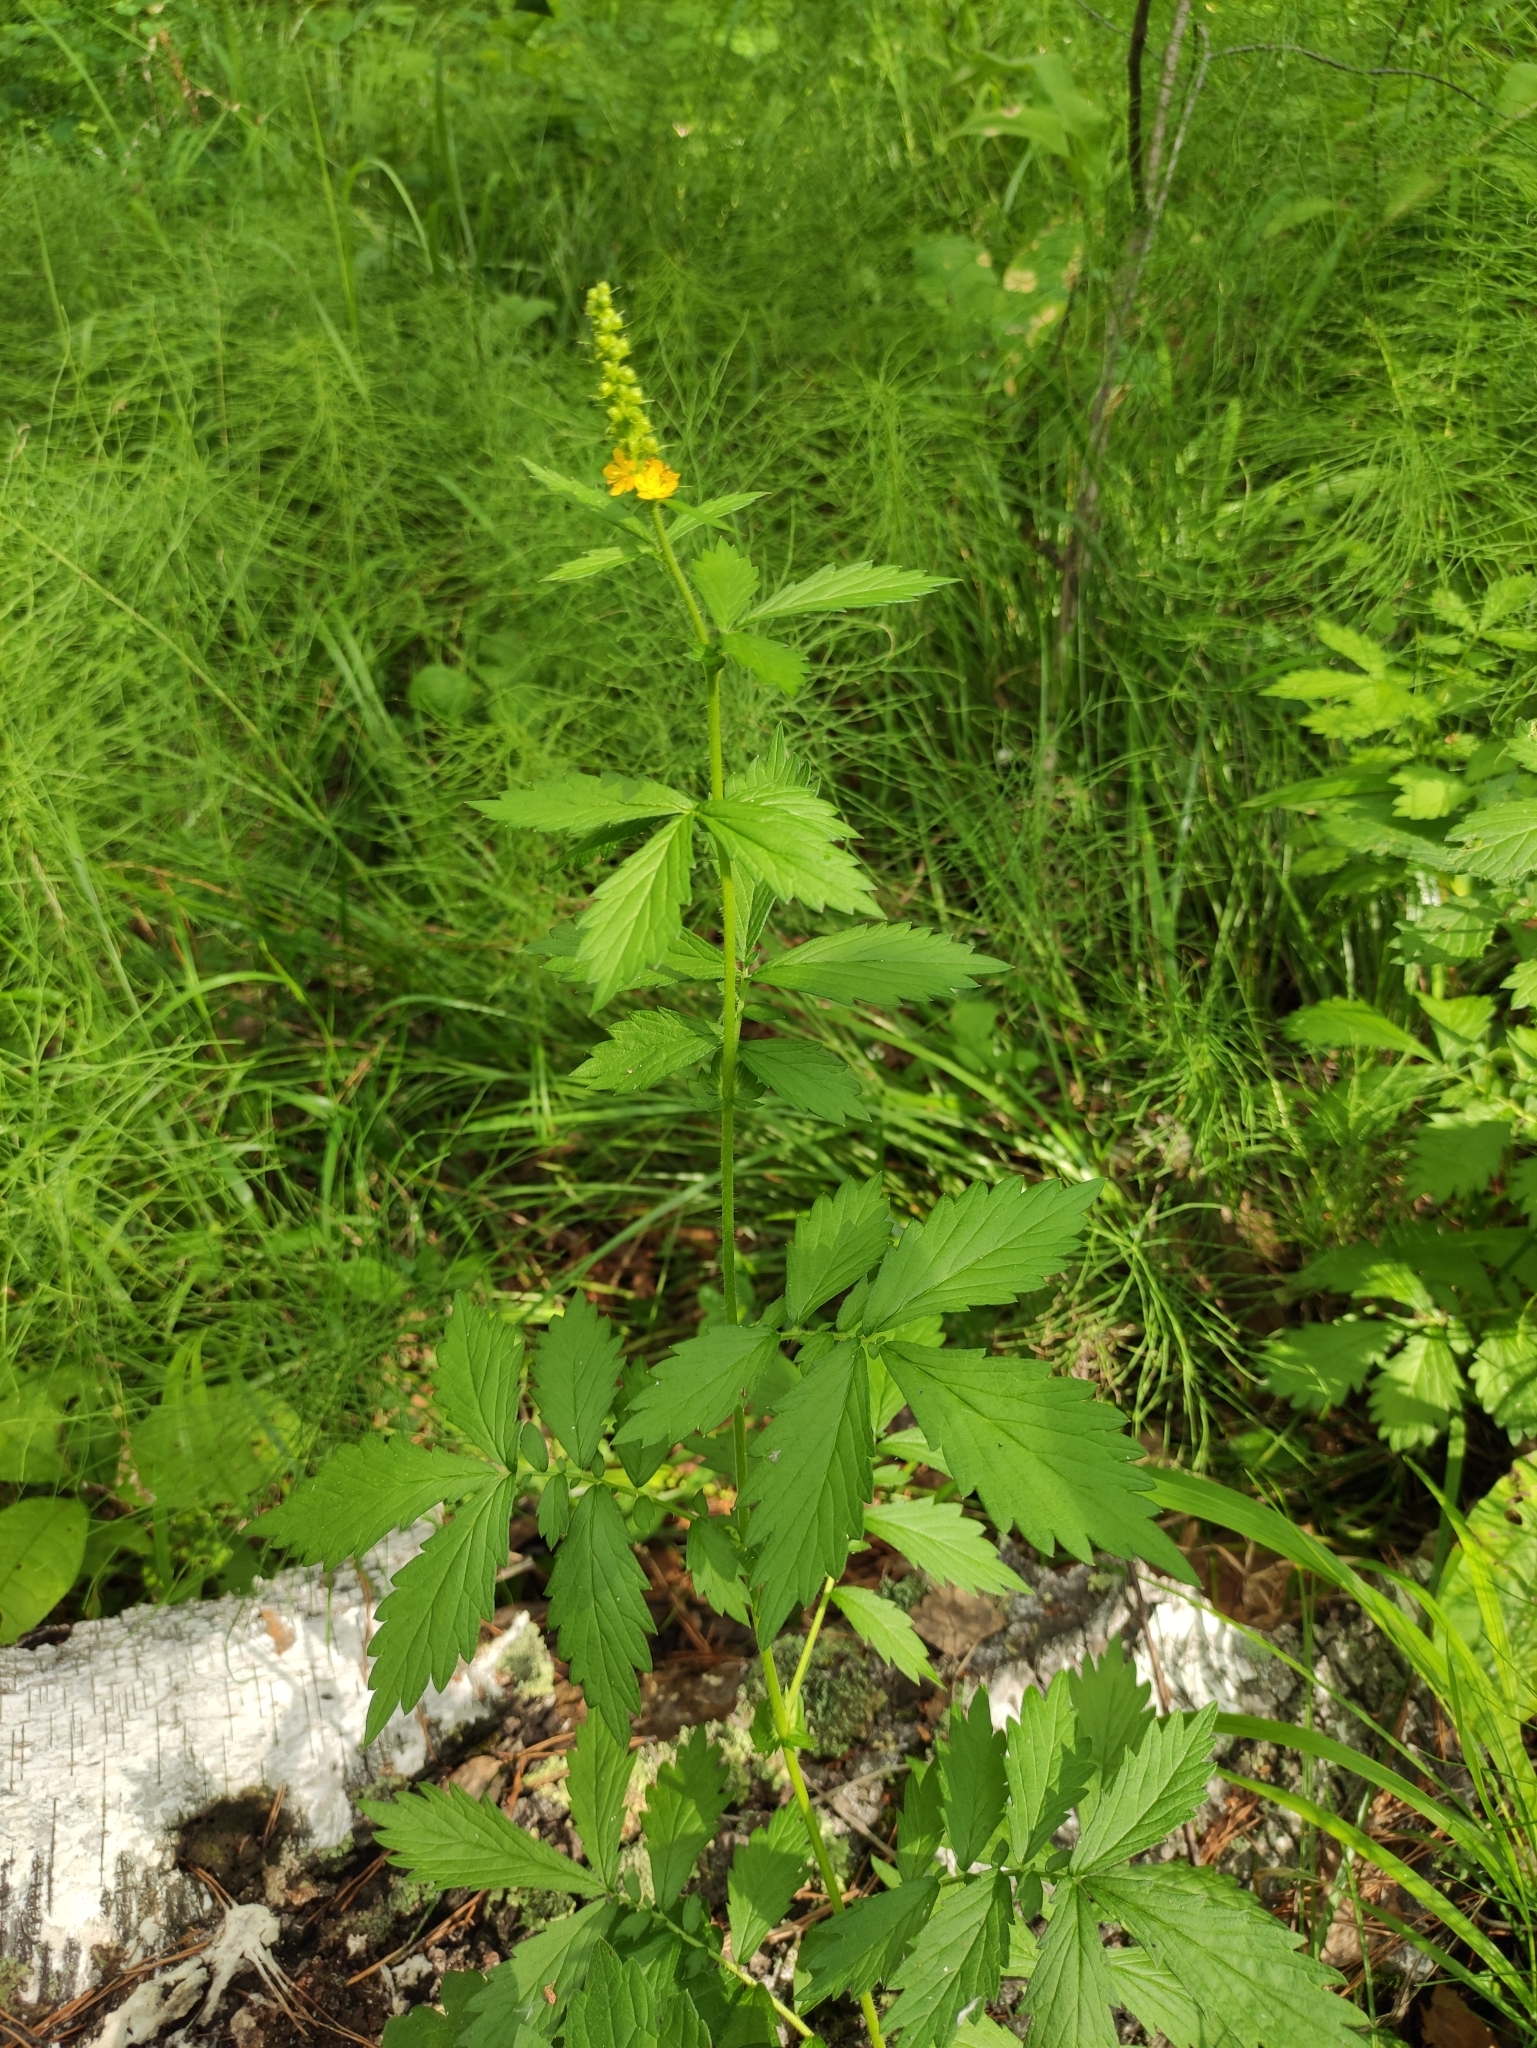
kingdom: Plantae
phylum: Tracheophyta
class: Magnoliopsida
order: Rosales
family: Rosaceae
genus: Agrimonia
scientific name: Agrimonia pilosa
